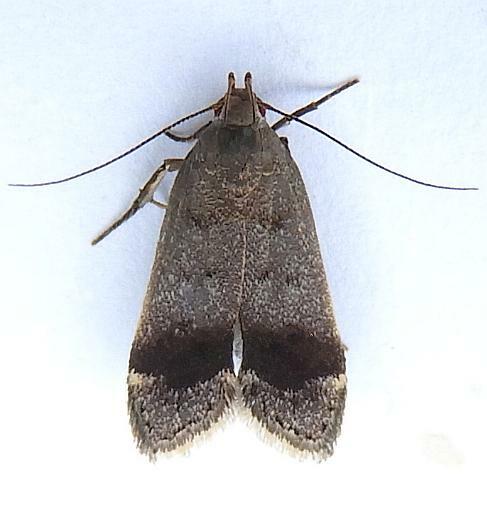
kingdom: Animalia
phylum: Arthropoda
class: Insecta
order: Lepidoptera
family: Gelechiidae
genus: Anacampsis
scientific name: Anacampsis fragariella
